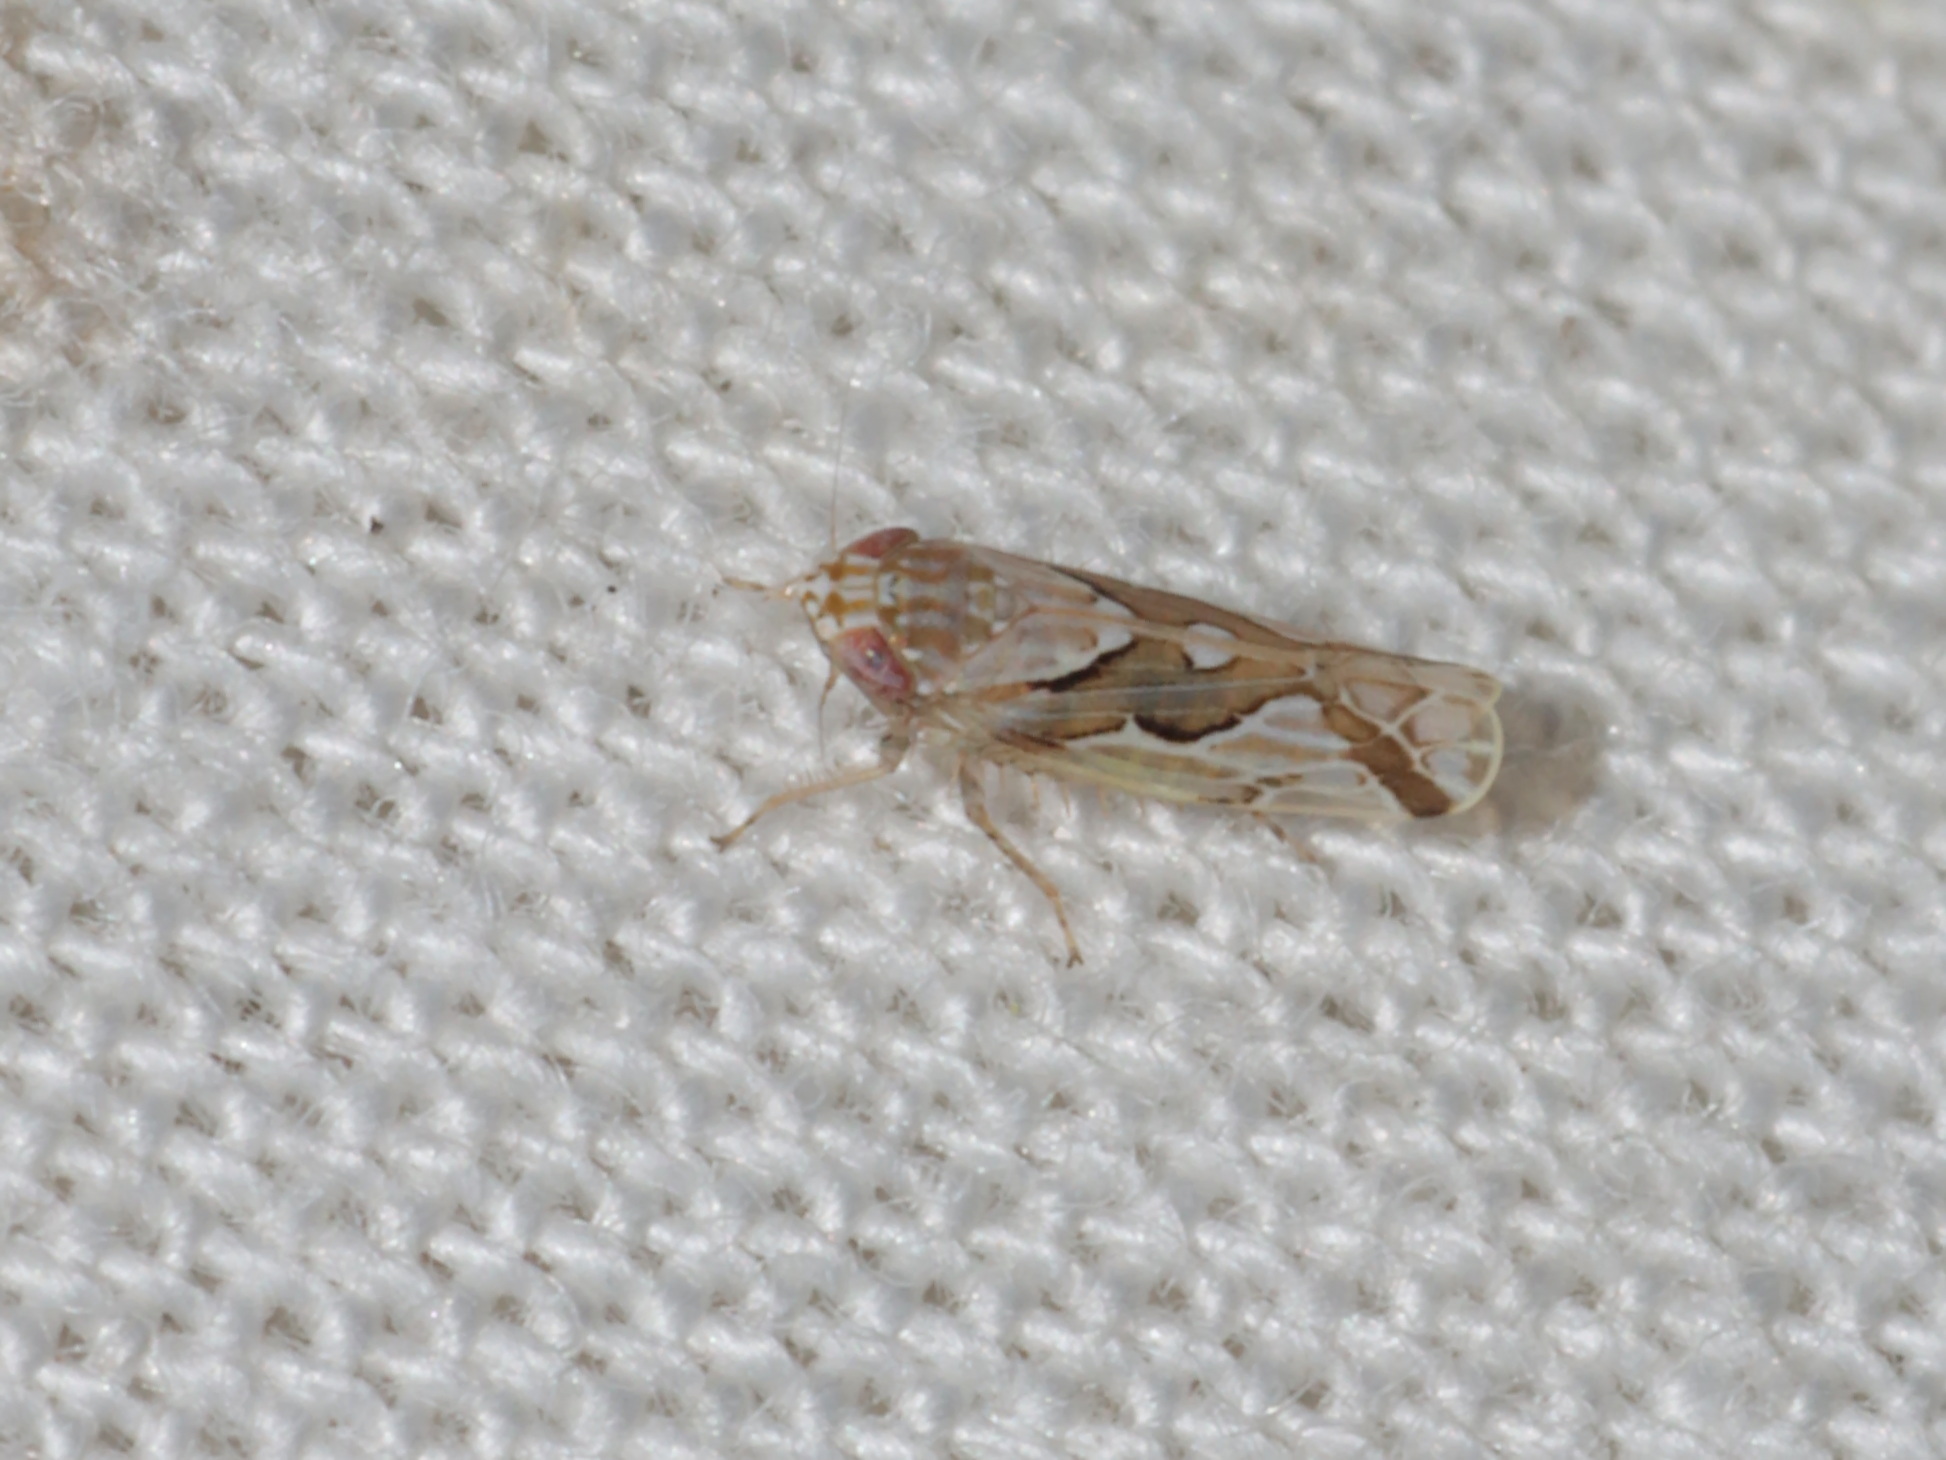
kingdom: Animalia
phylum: Arthropoda
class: Insecta
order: Hemiptera
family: Cicadellidae
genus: Maiestas
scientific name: Maiestas dorsalis
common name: Zig-zag leafhopper
